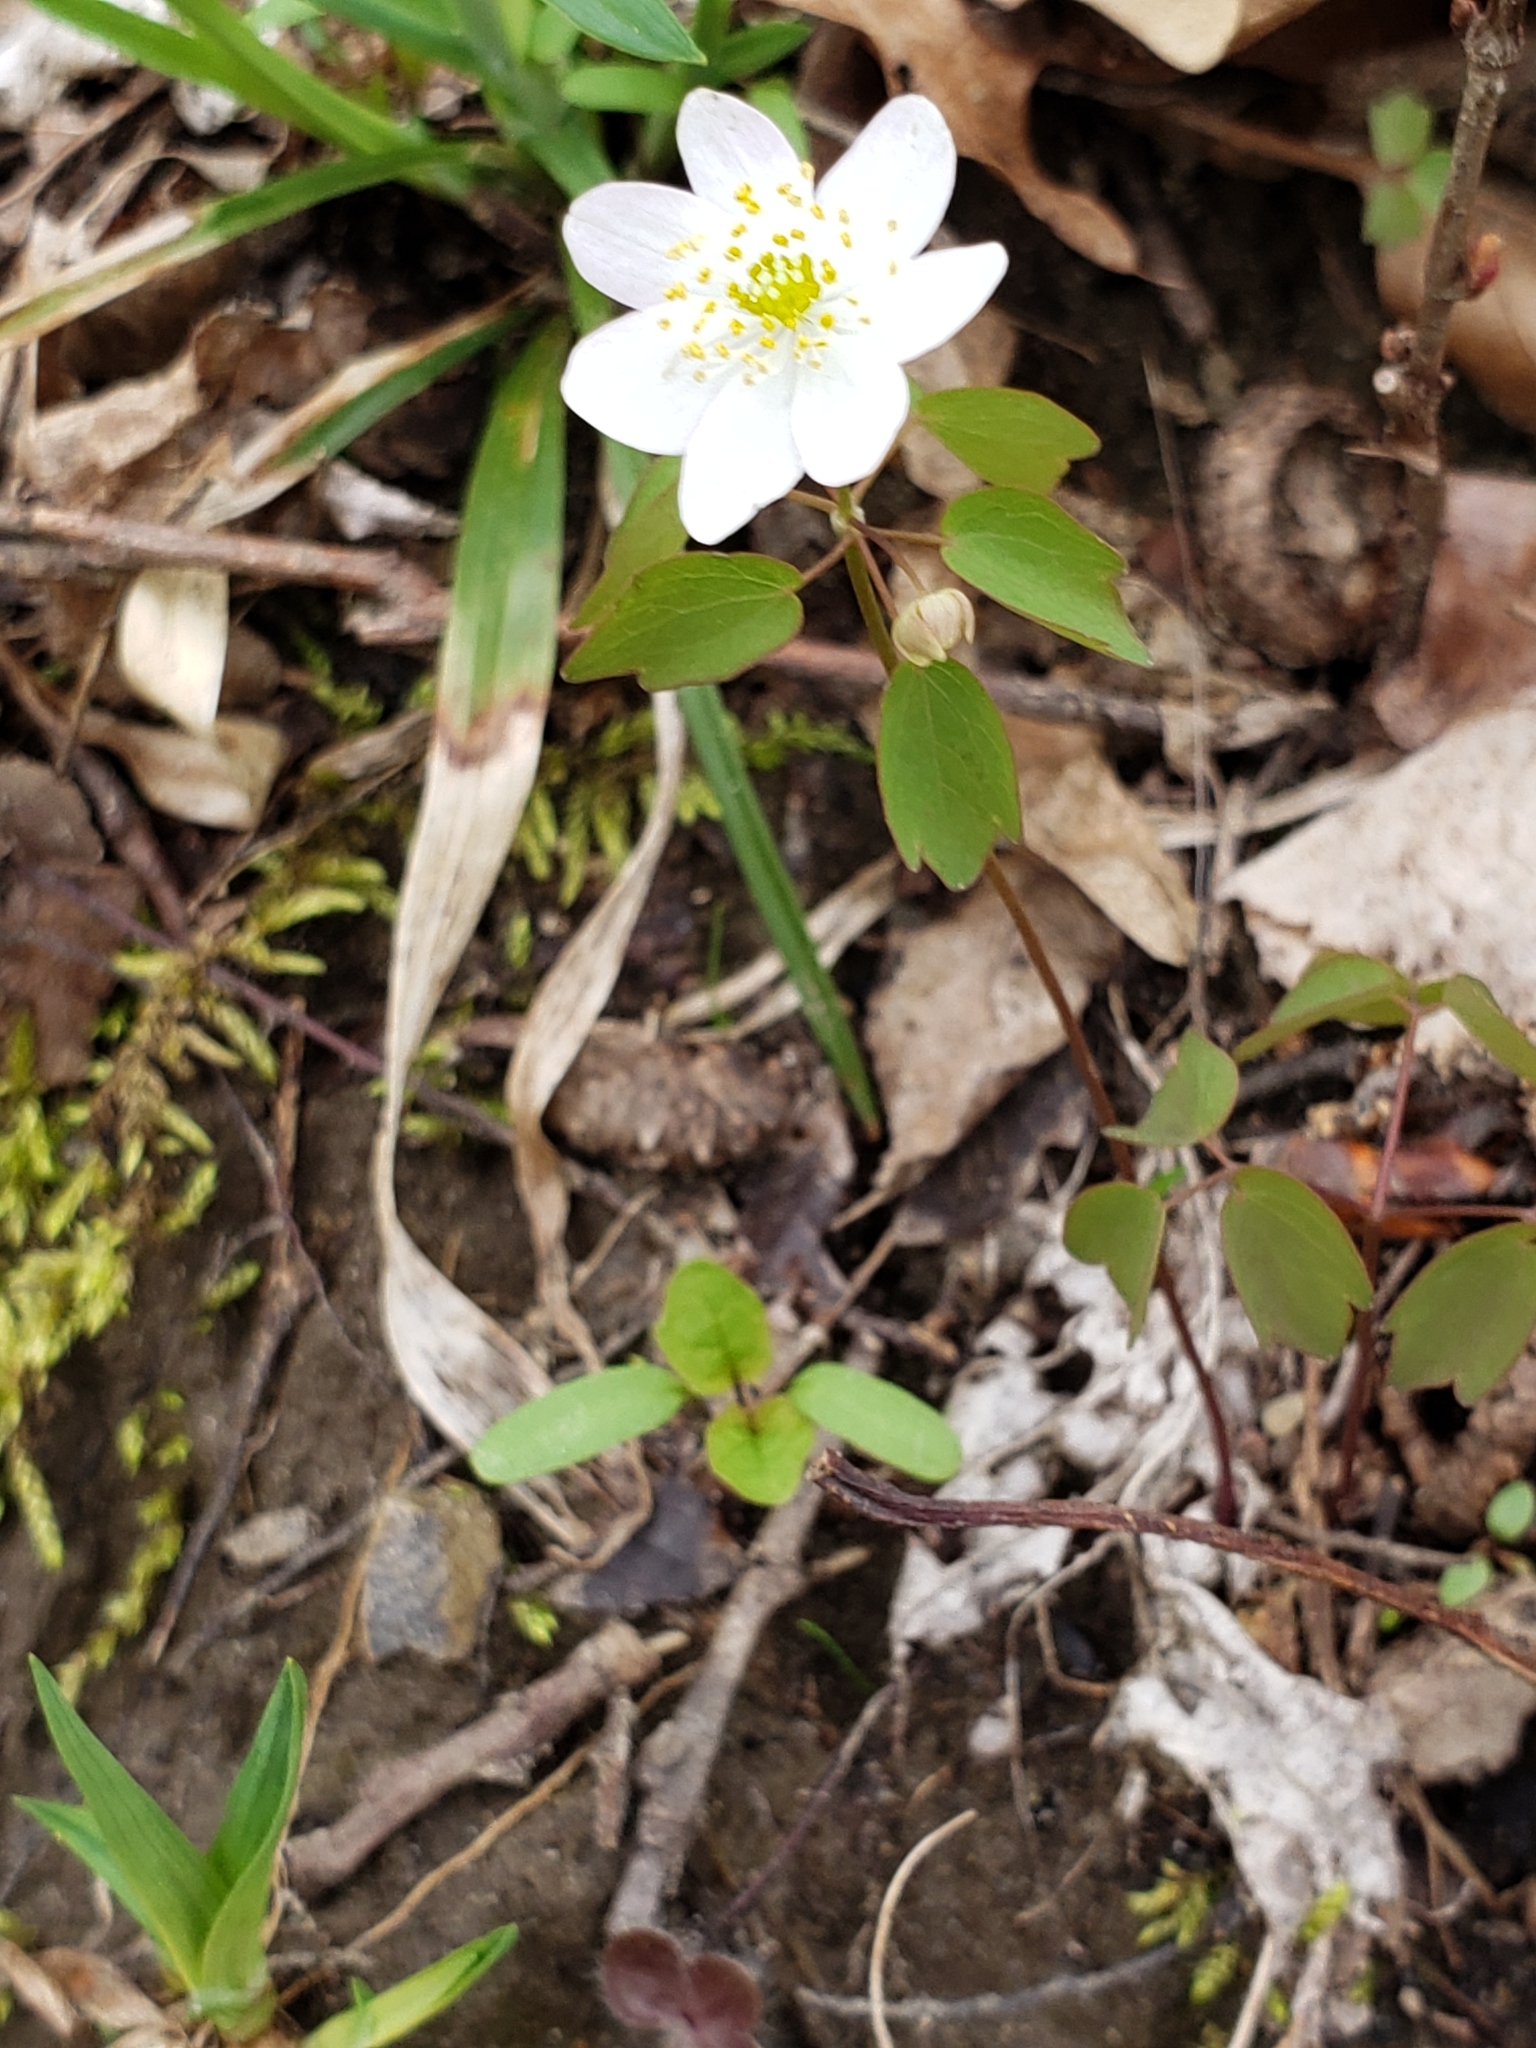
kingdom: Plantae
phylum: Tracheophyta
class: Magnoliopsida
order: Ranunculales
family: Ranunculaceae
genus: Thalictrum
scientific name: Thalictrum thalictroides
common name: Rue-anemone
